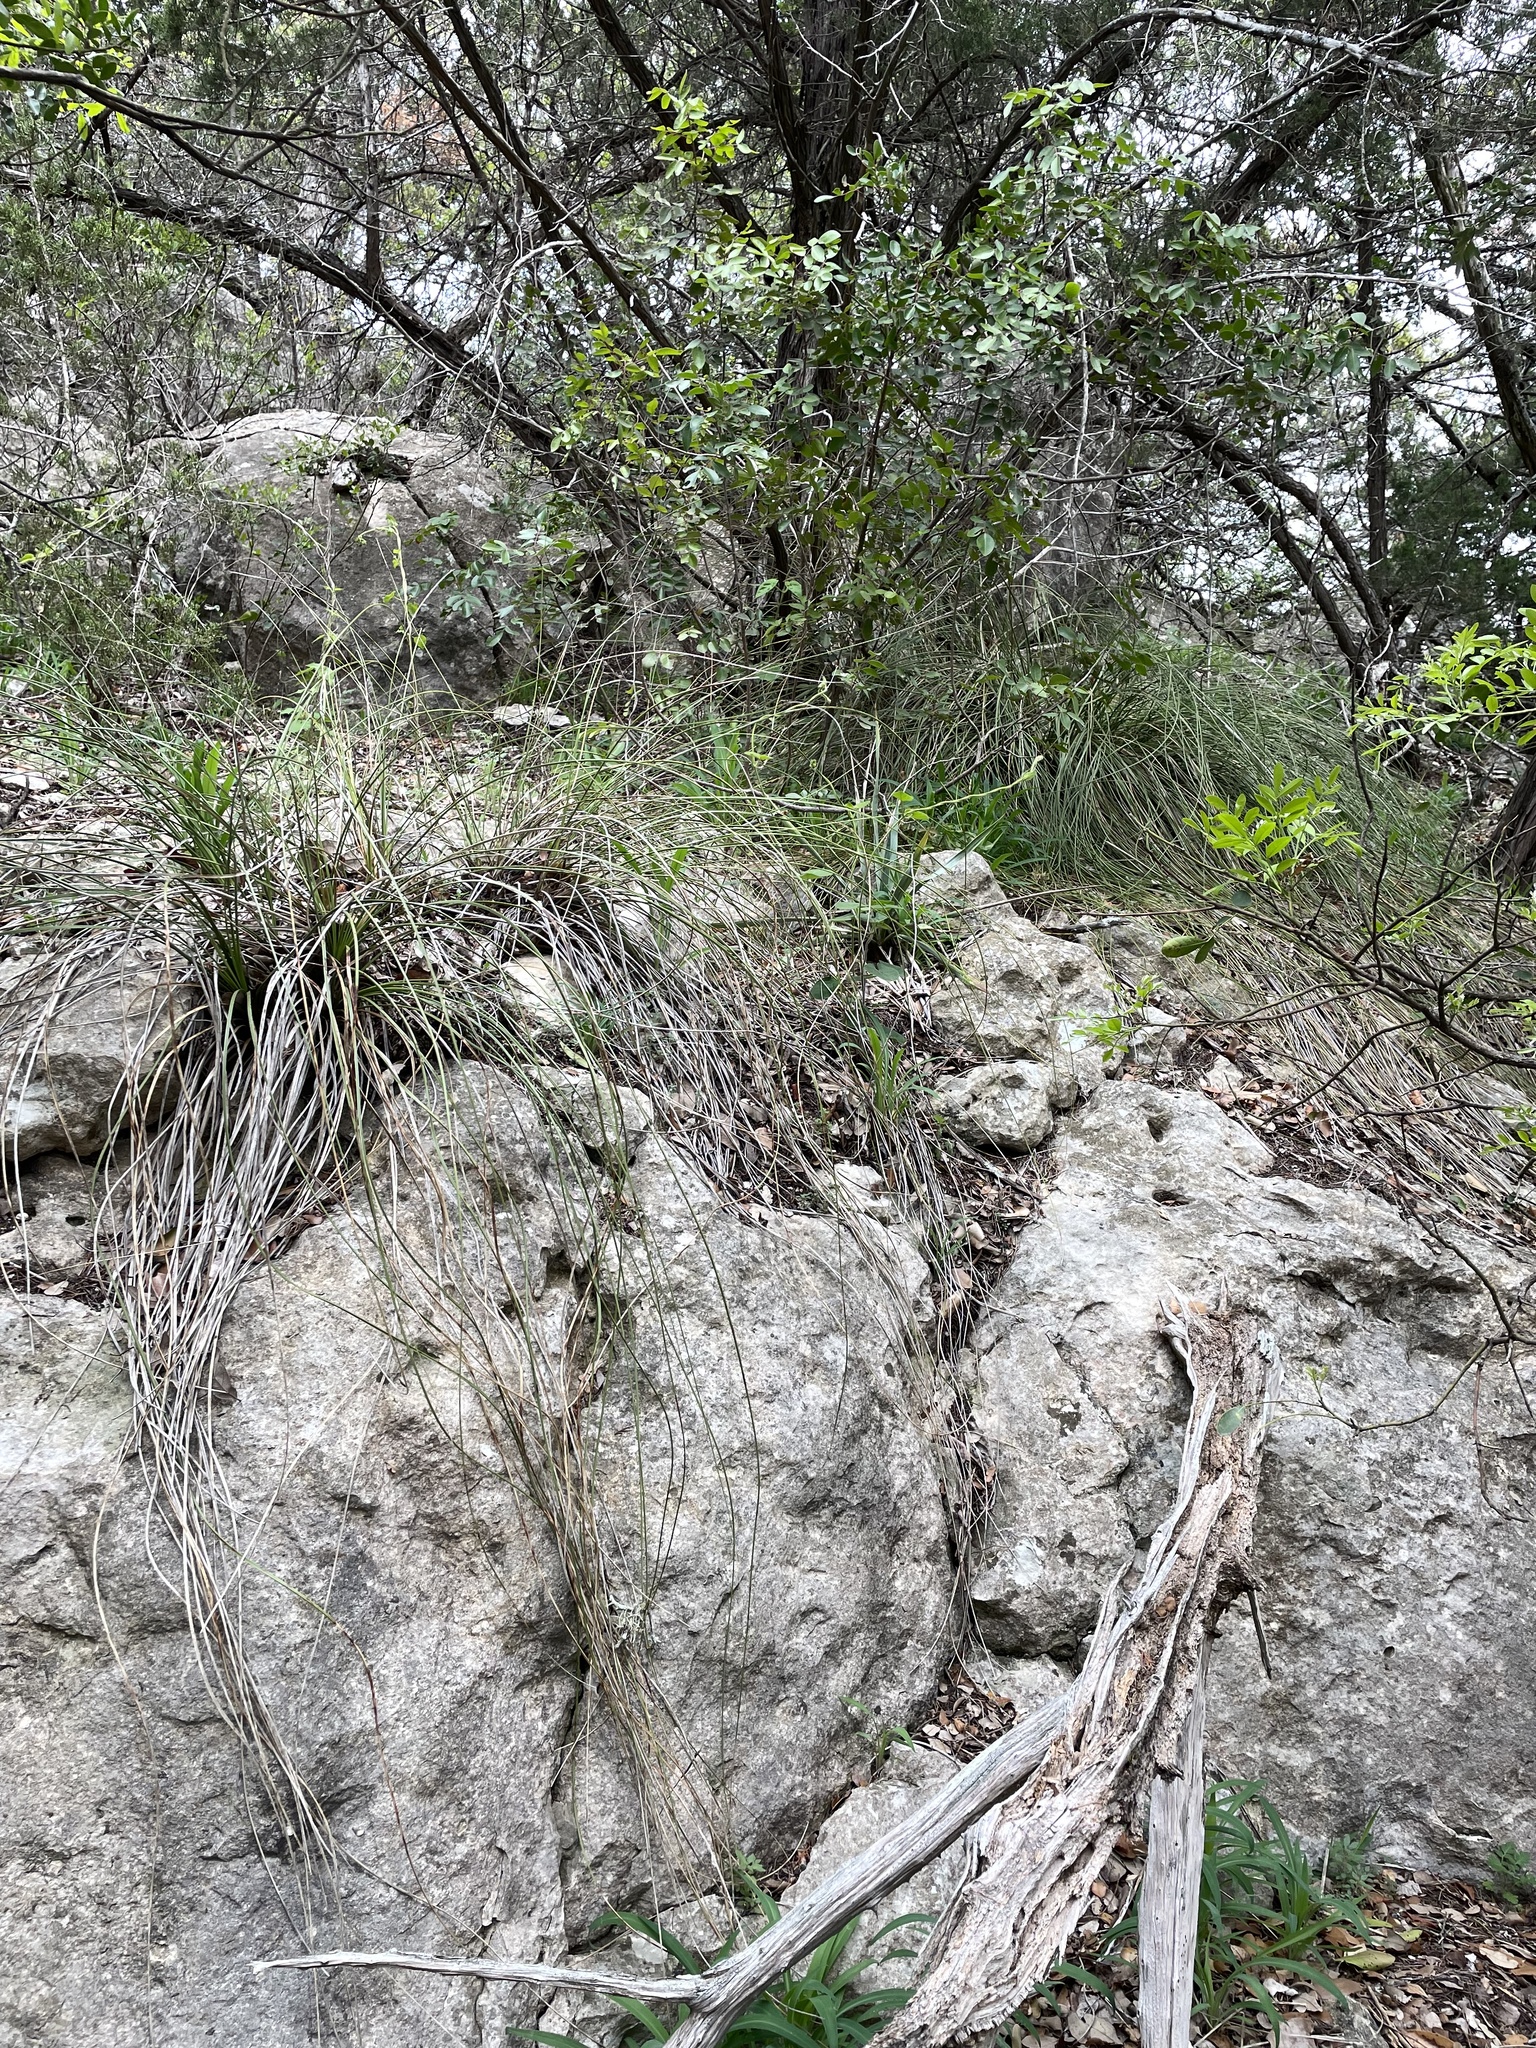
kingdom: Plantae
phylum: Tracheophyta
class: Liliopsida
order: Asparagales
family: Asparagaceae
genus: Nolina
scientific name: Nolina texana
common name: Texas sacahuiste
